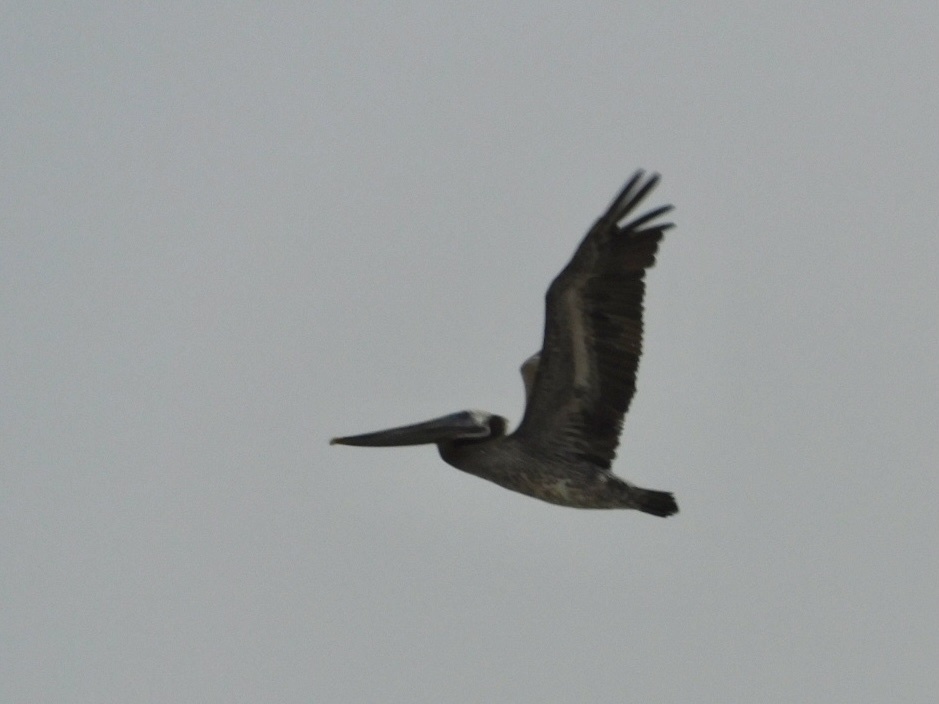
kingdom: Animalia
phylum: Chordata
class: Aves
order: Pelecaniformes
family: Pelecanidae
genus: Pelecanus
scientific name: Pelecanus occidentalis
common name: Brown pelican
